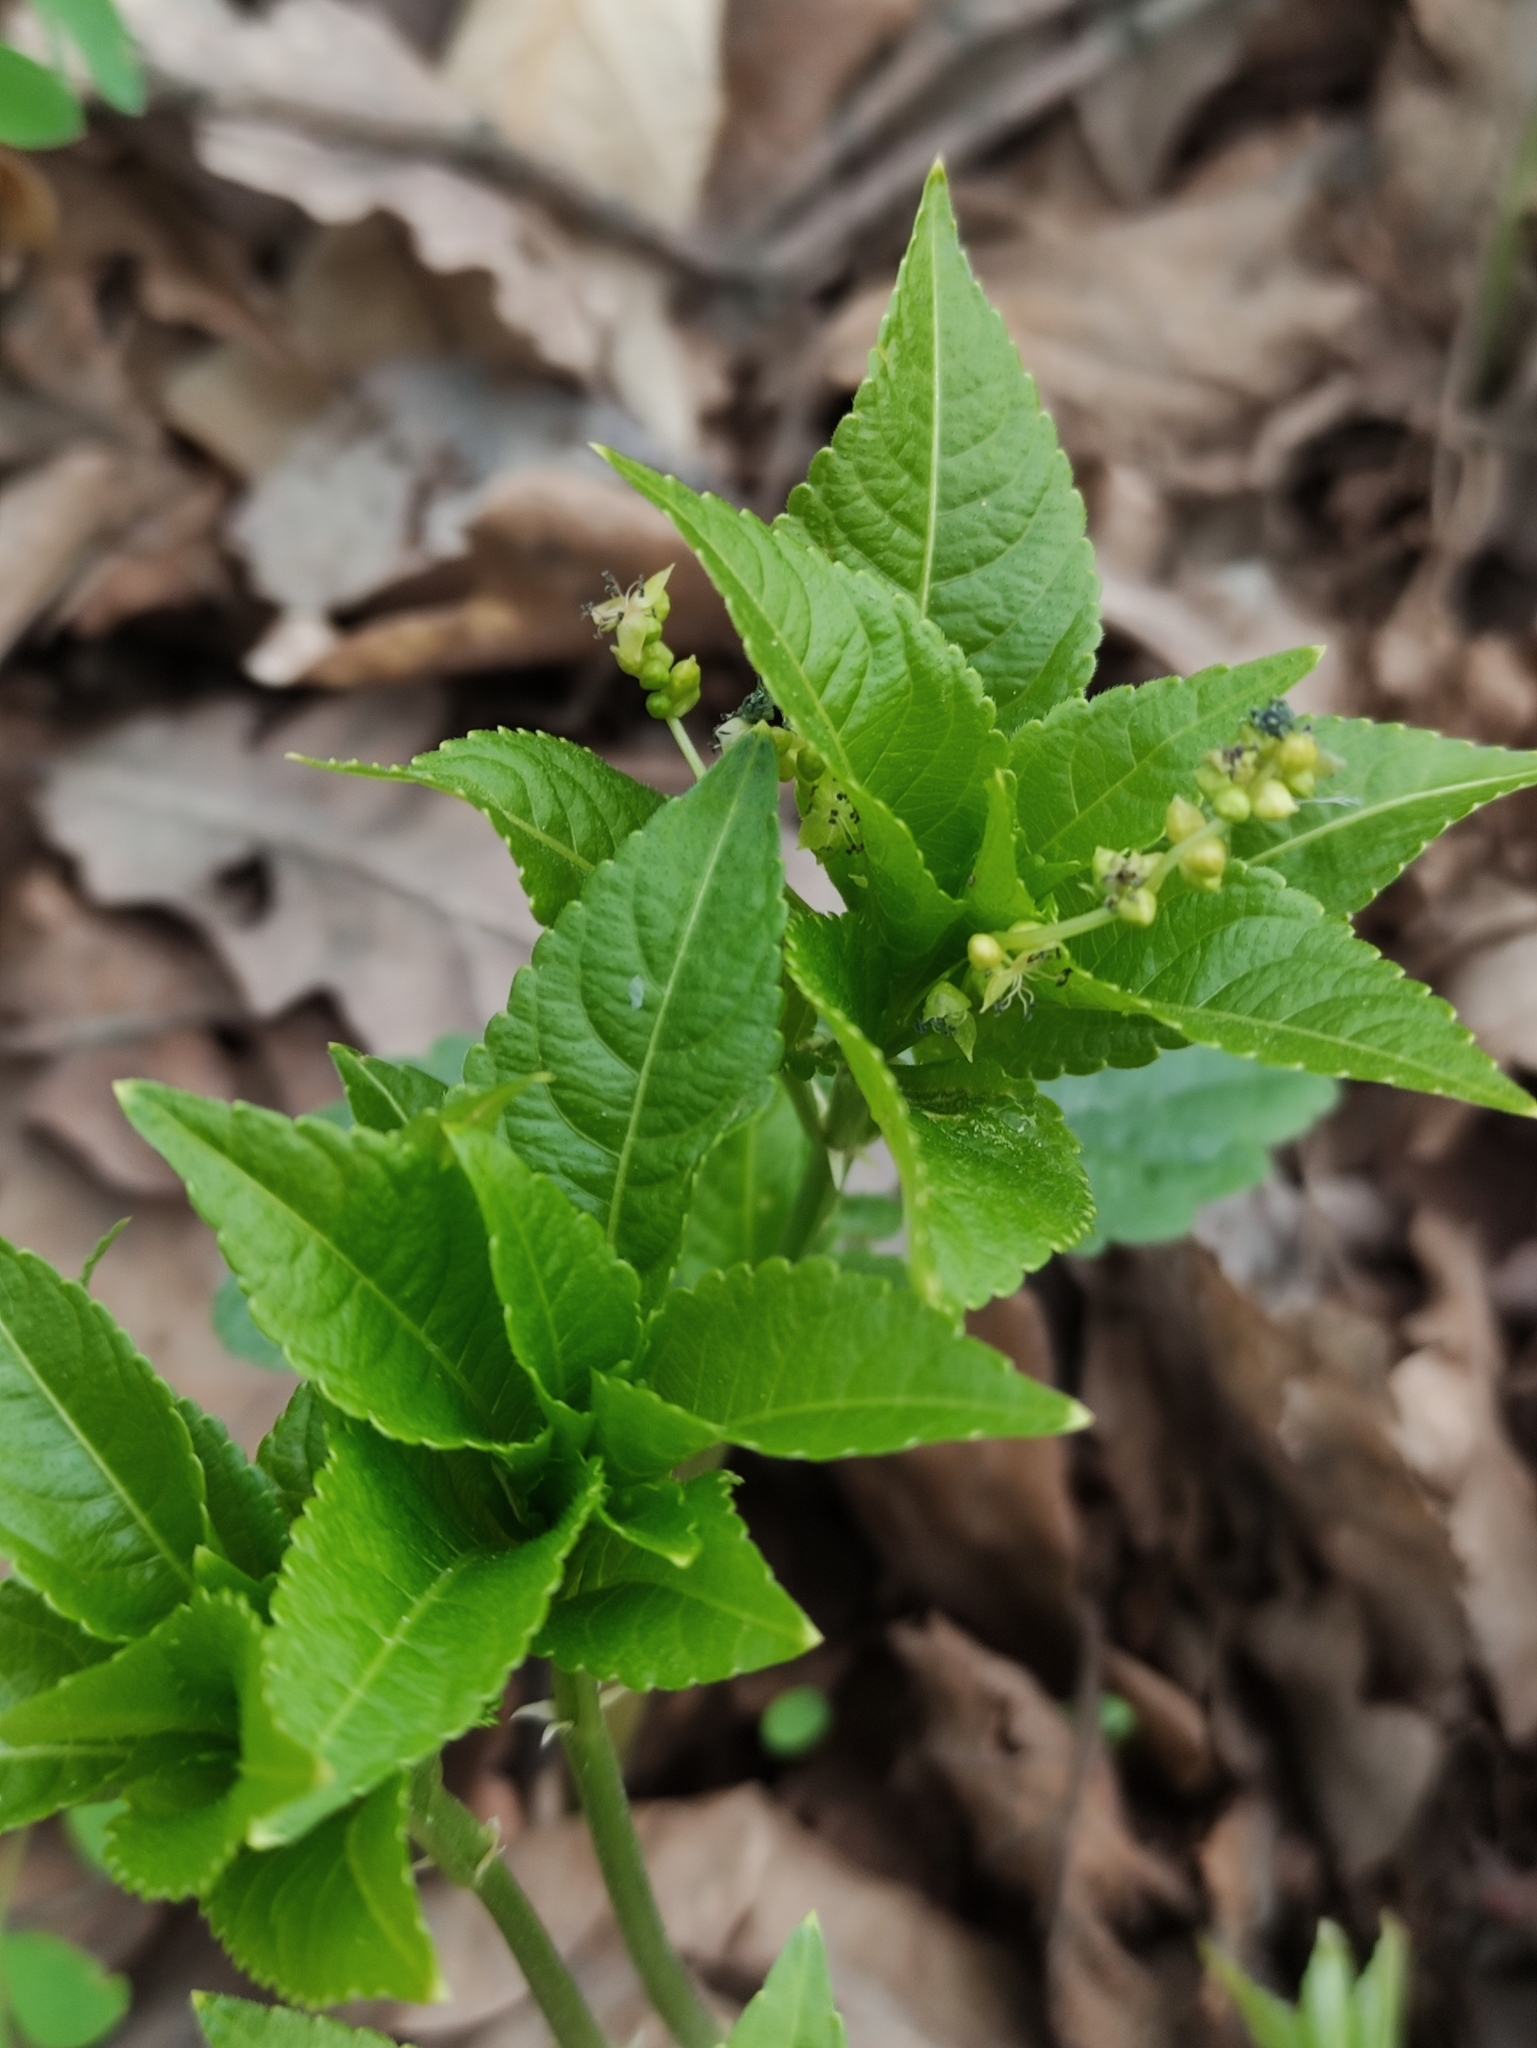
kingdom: Plantae
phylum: Tracheophyta
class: Magnoliopsida
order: Malpighiales
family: Euphorbiaceae
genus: Mercurialis
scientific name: Mercurialis perennis
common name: Dog mercury
